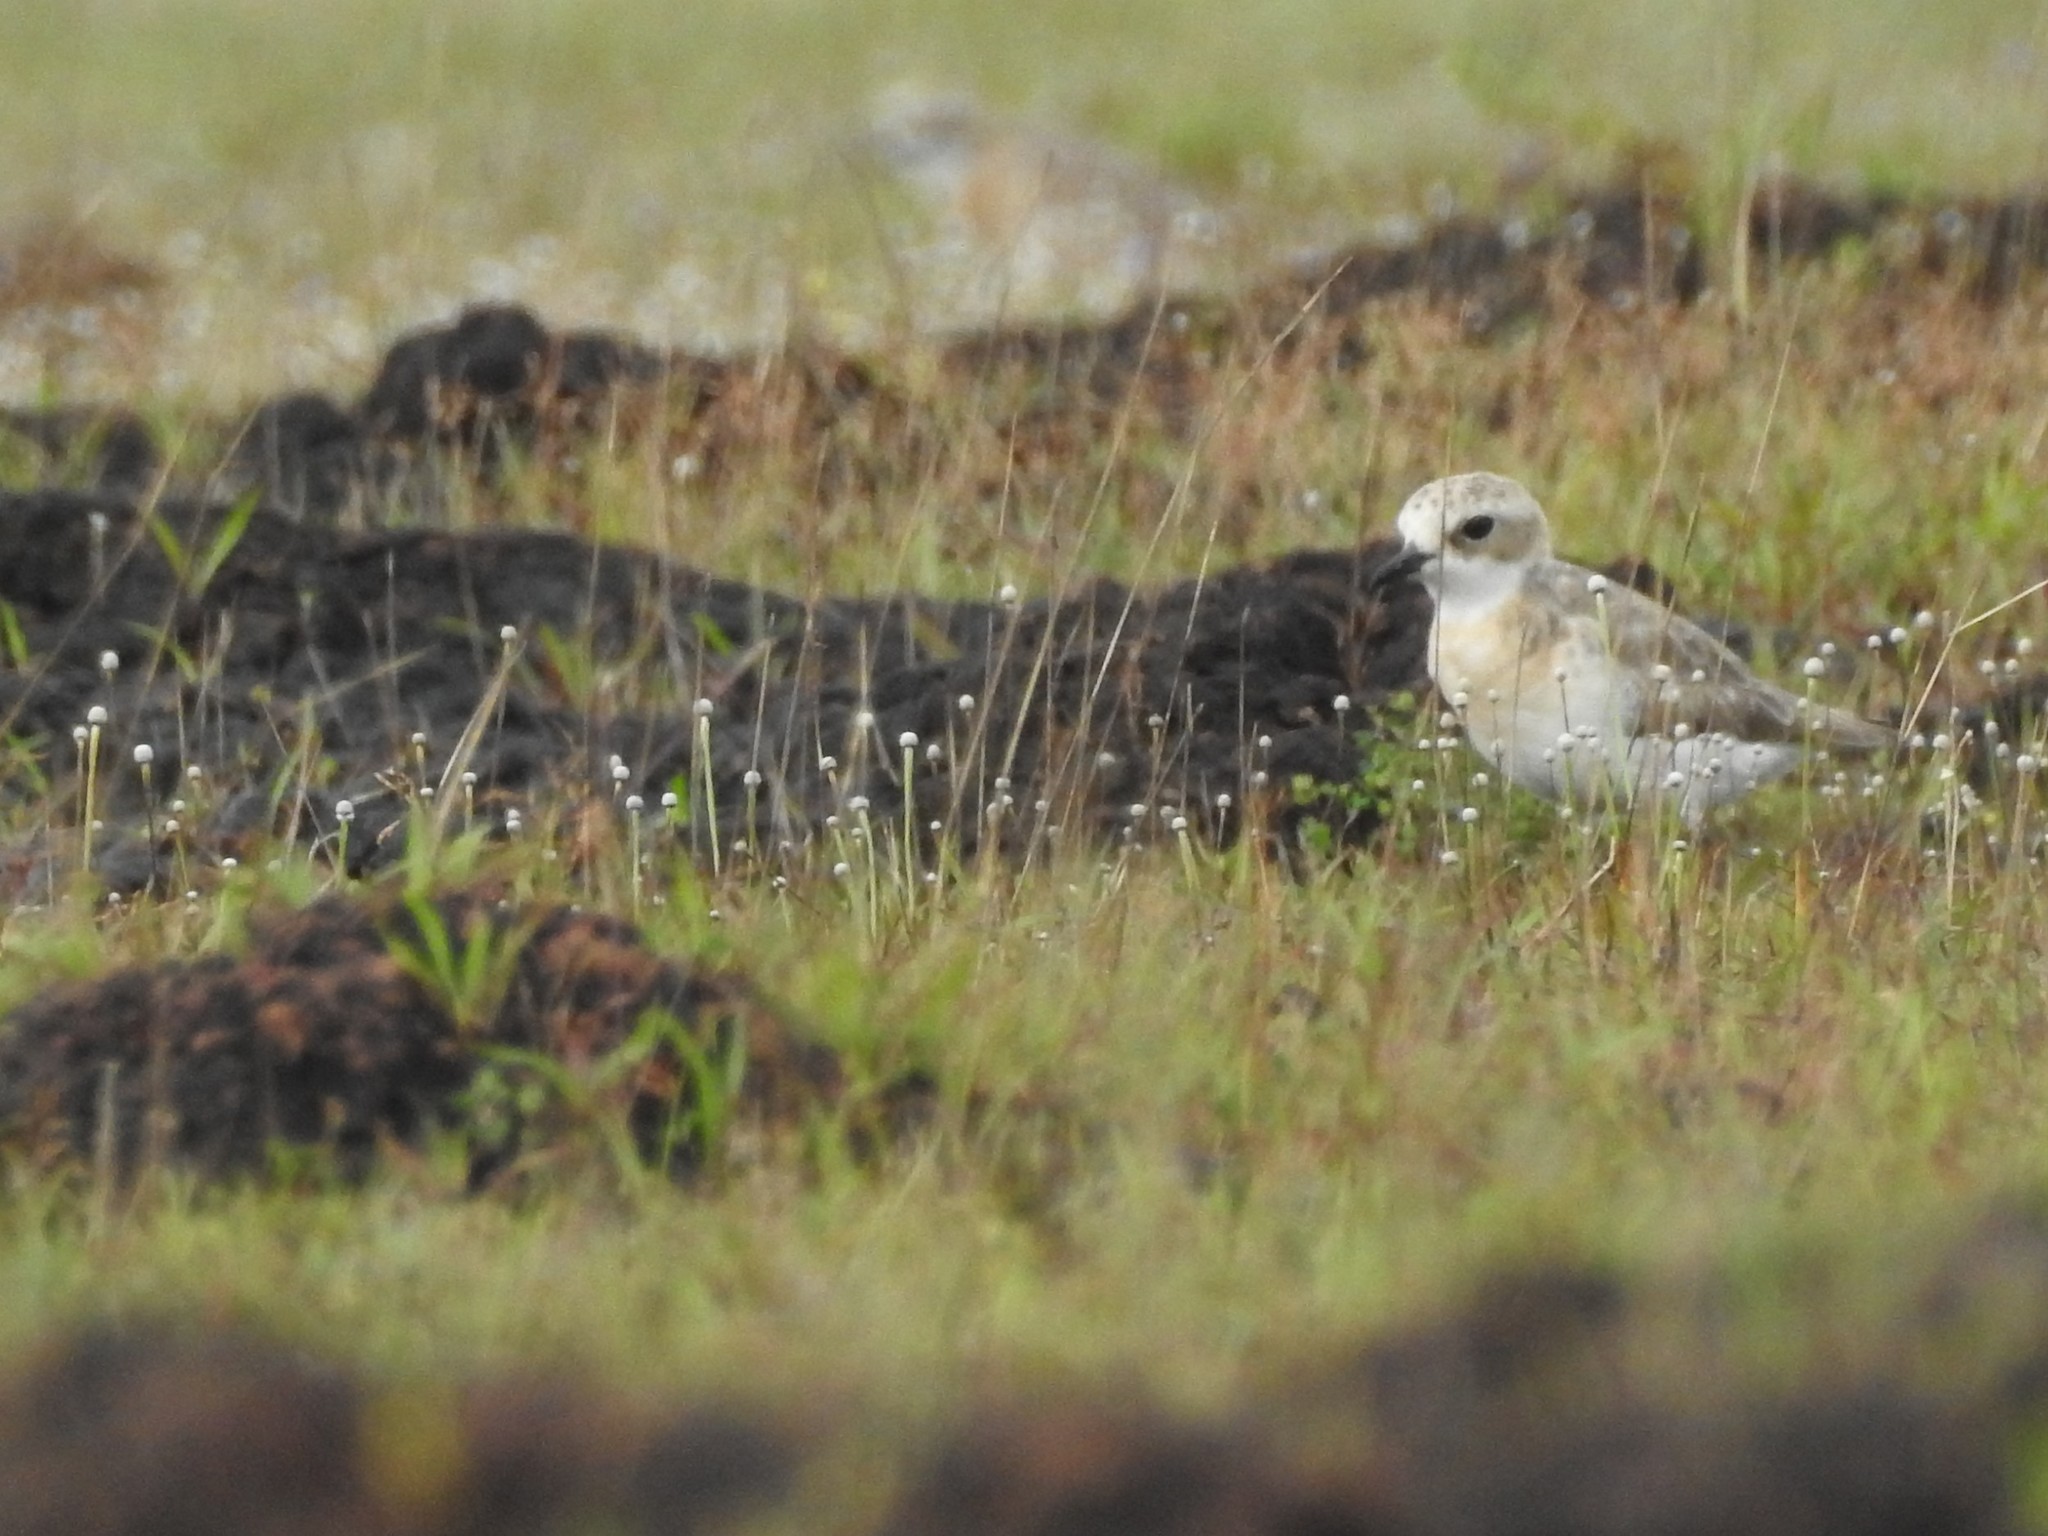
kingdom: Animalia
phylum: Chordata
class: Aves
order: Charadriiformes
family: Charadriidae
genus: Anarhynchus
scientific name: Anarhynchus
